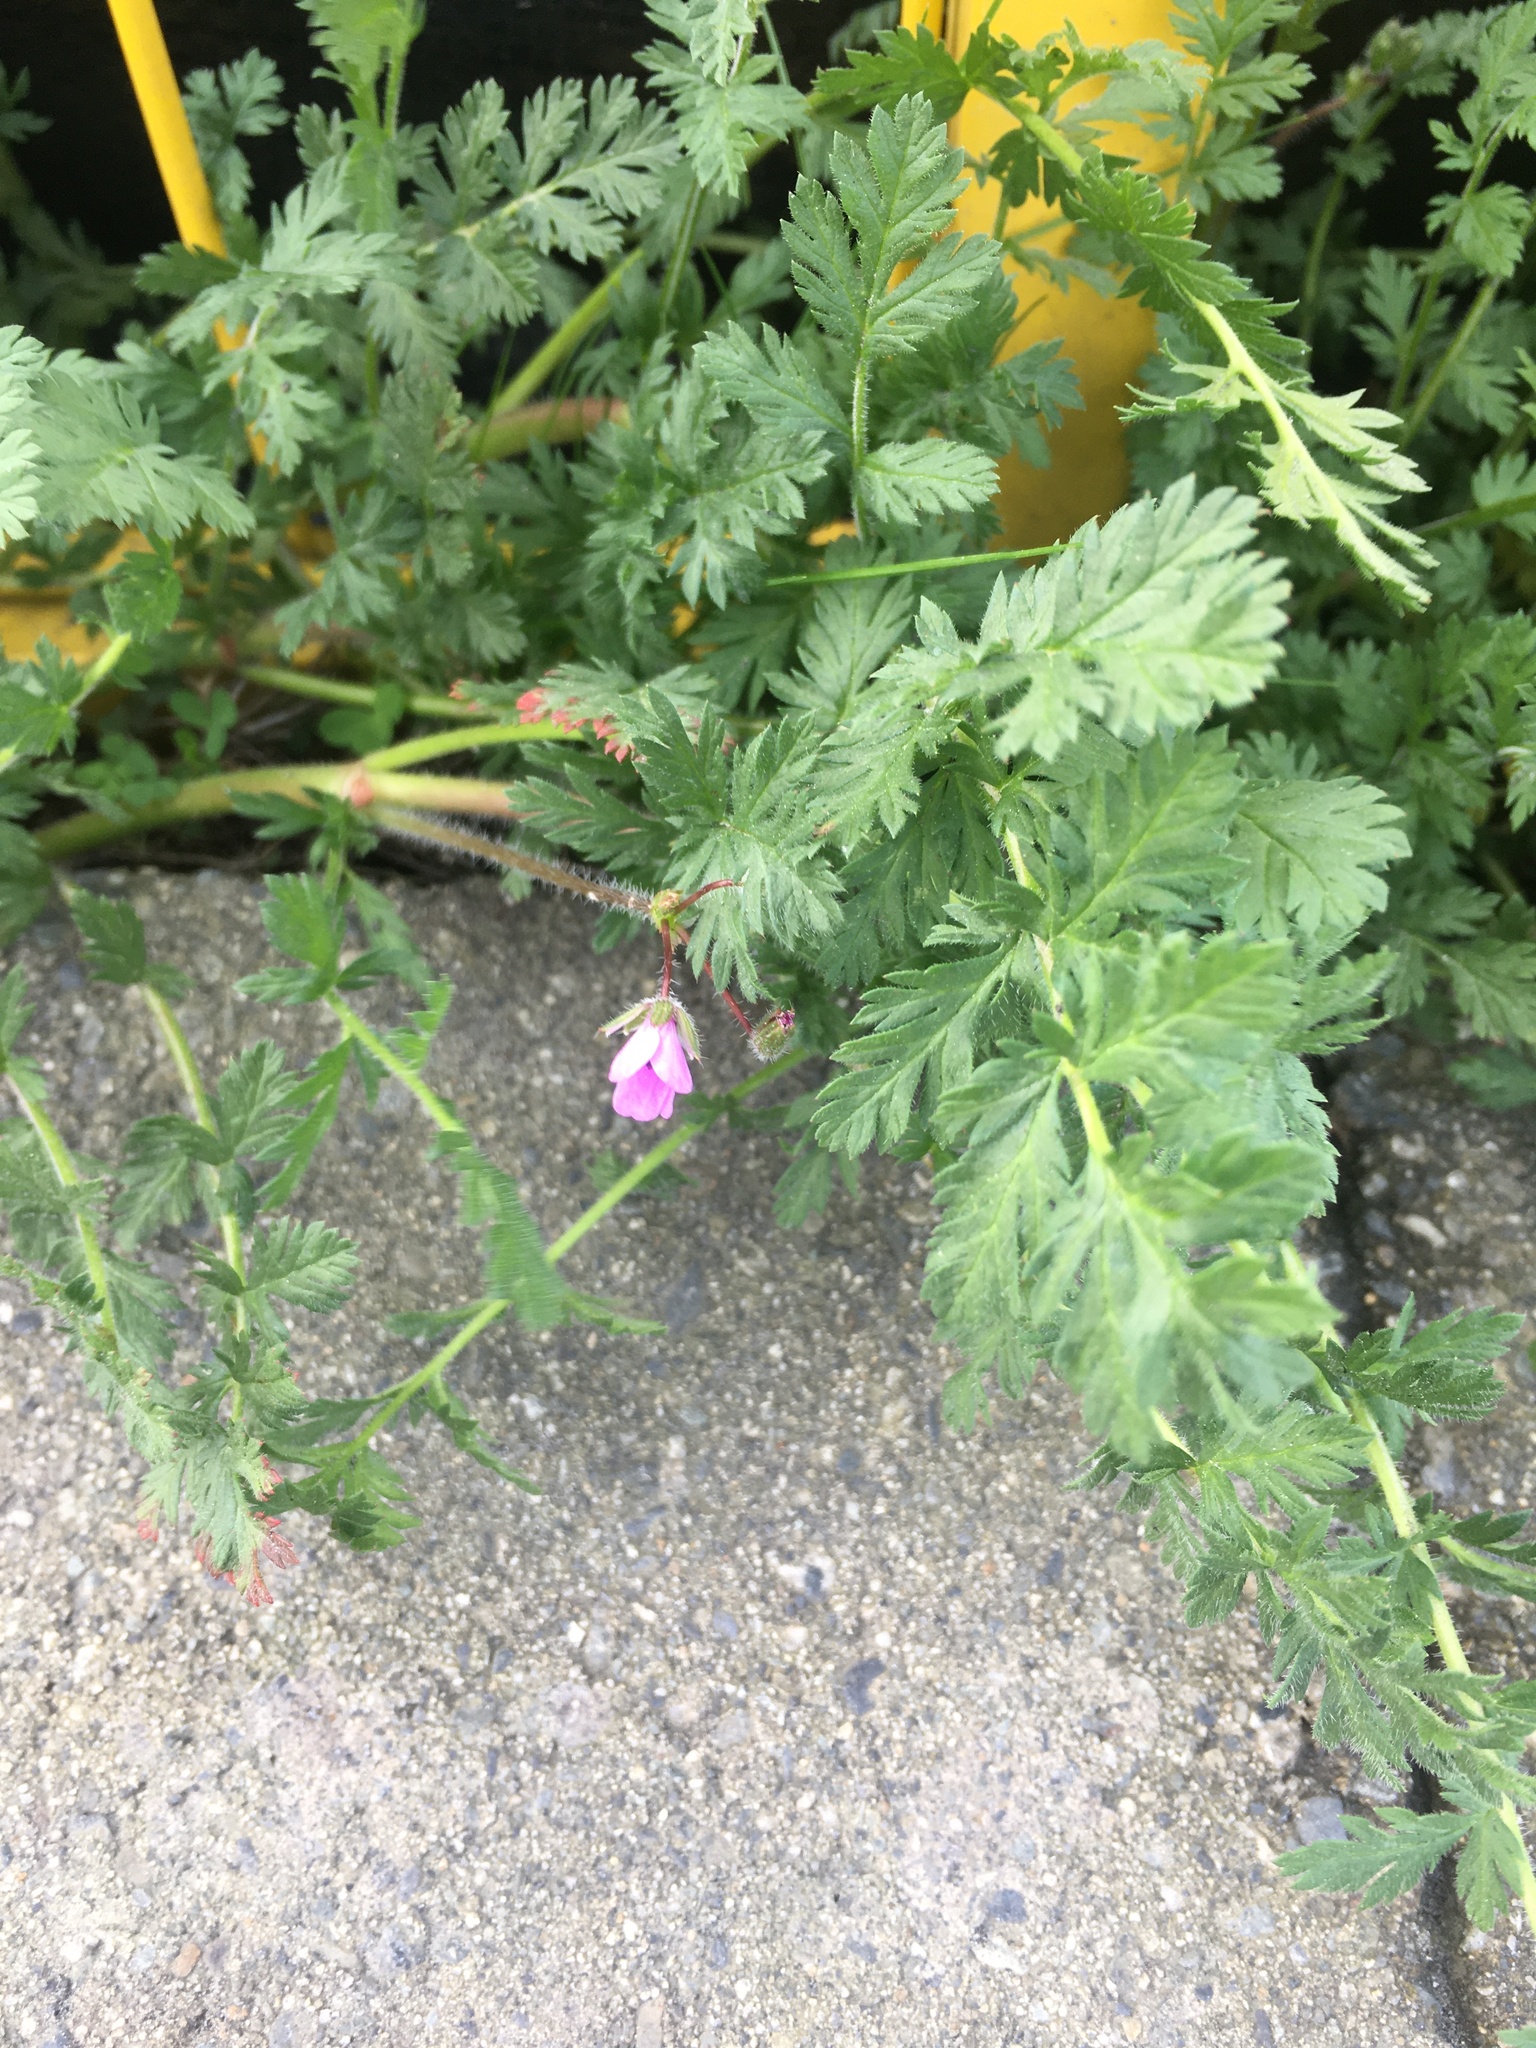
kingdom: Plantae
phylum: Tracheophyta
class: Magnoliopsida
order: Geraniales
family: Geraniaceae
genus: Erodium
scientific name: Erodium cicutarium
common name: Common stork's-bill
